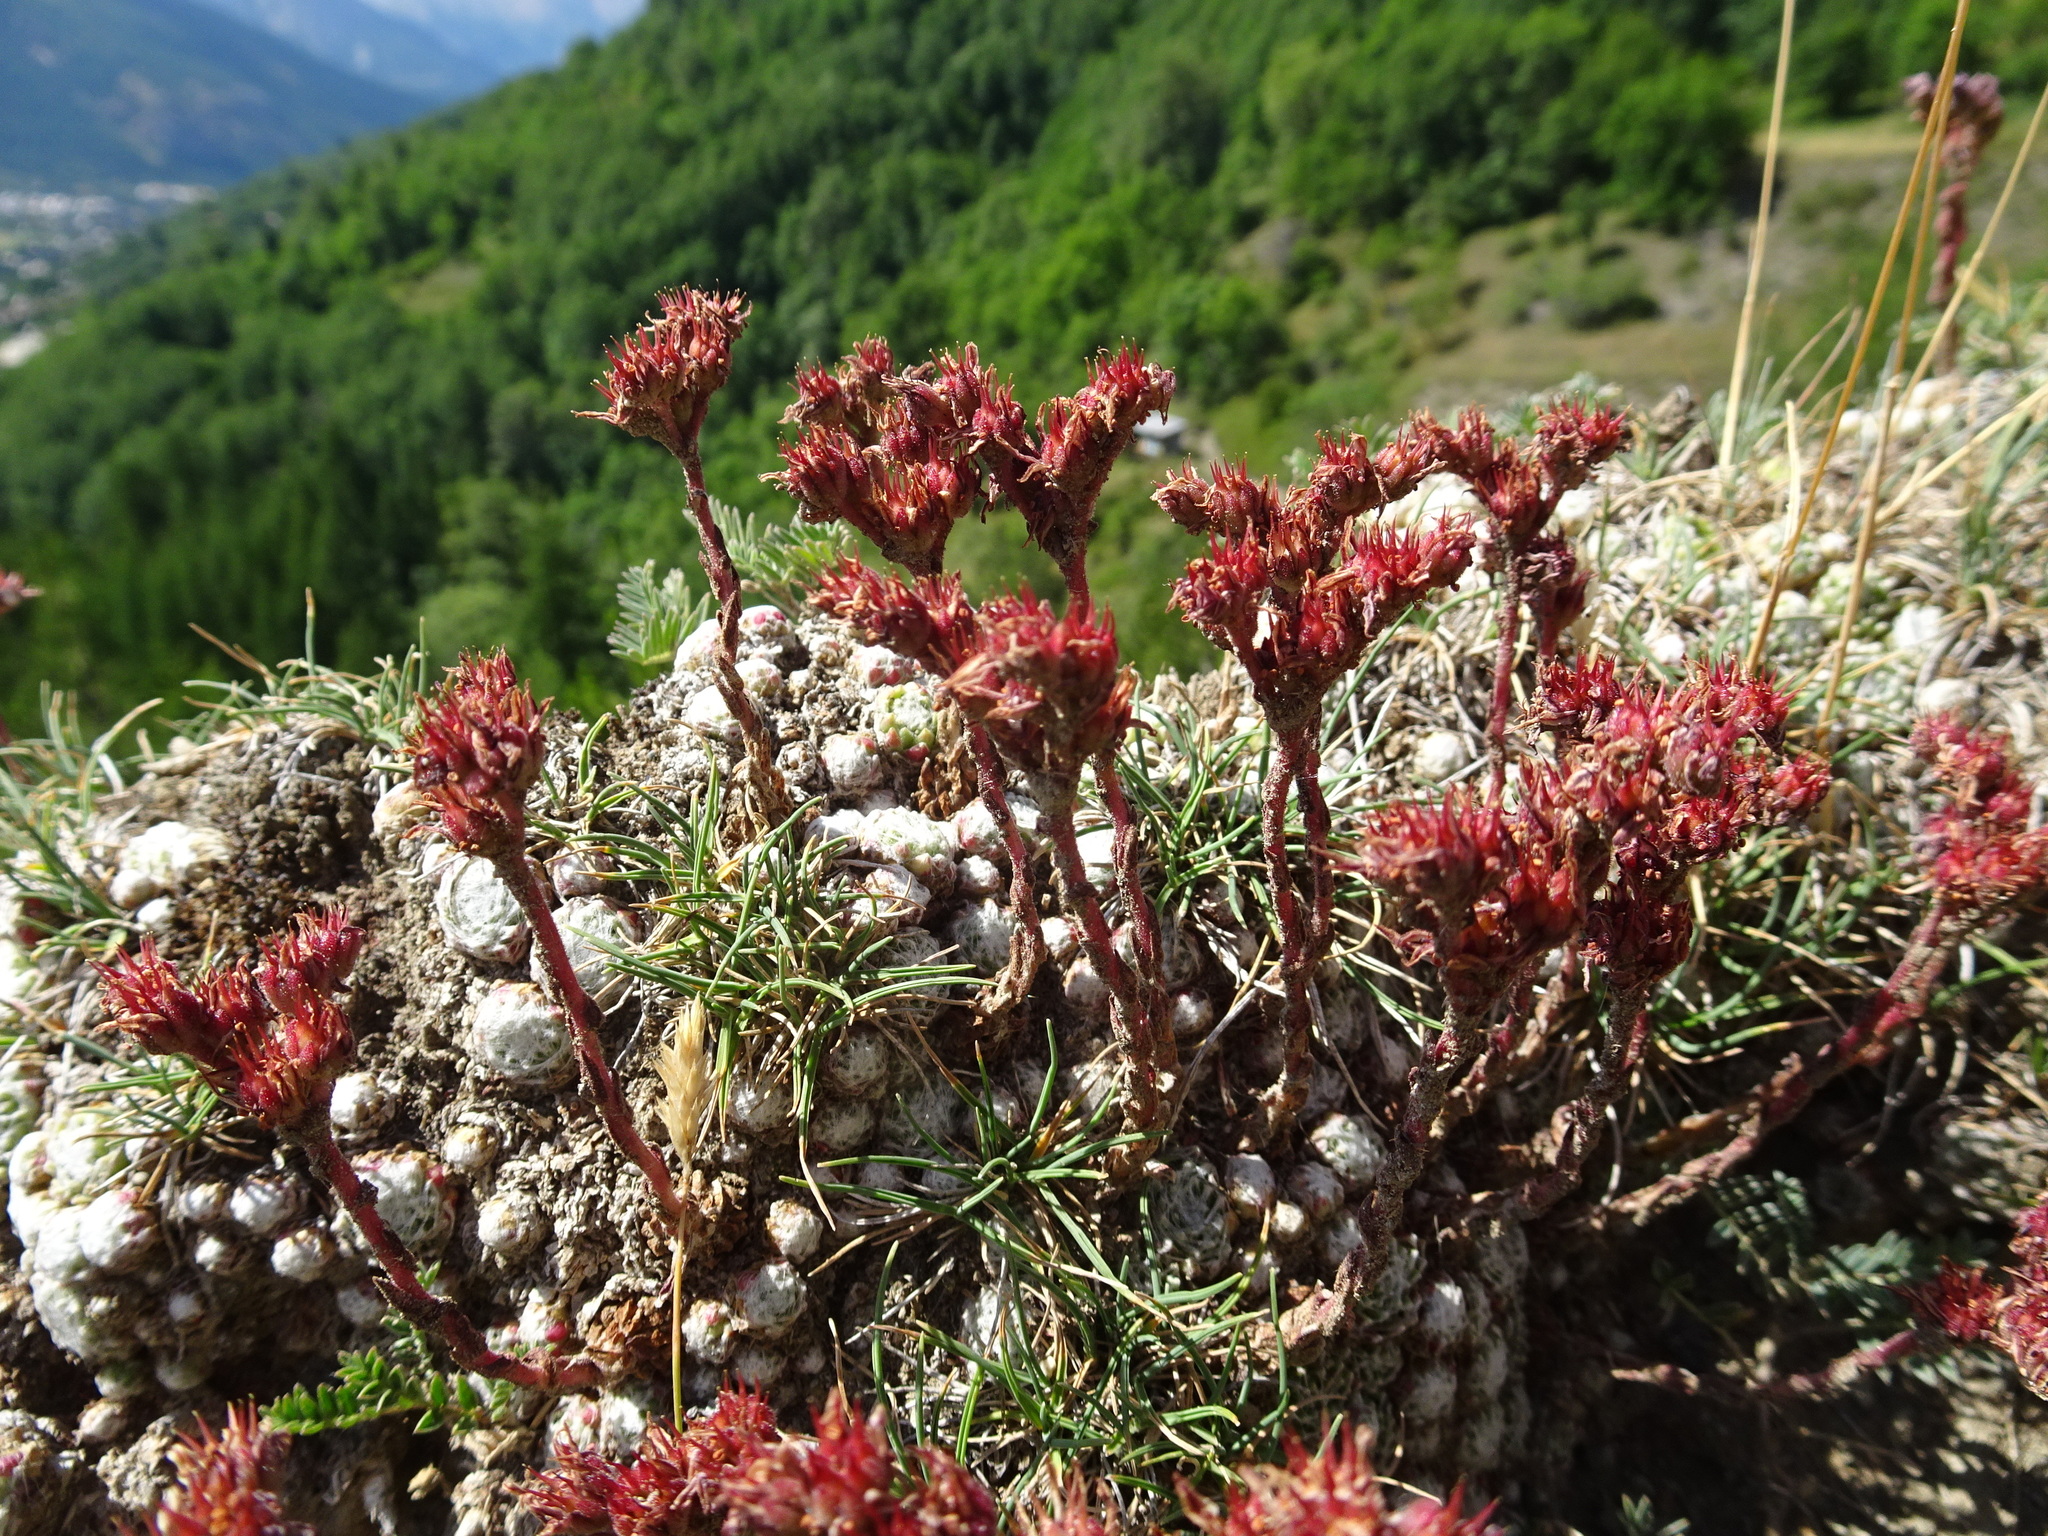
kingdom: Plantae
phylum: Tracheophyta
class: Magnoliopsida
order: Saxifragales
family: Crassulaceae
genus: Sempervivum
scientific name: Sempervivum arachnoideum
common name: Cobweb house-leek
